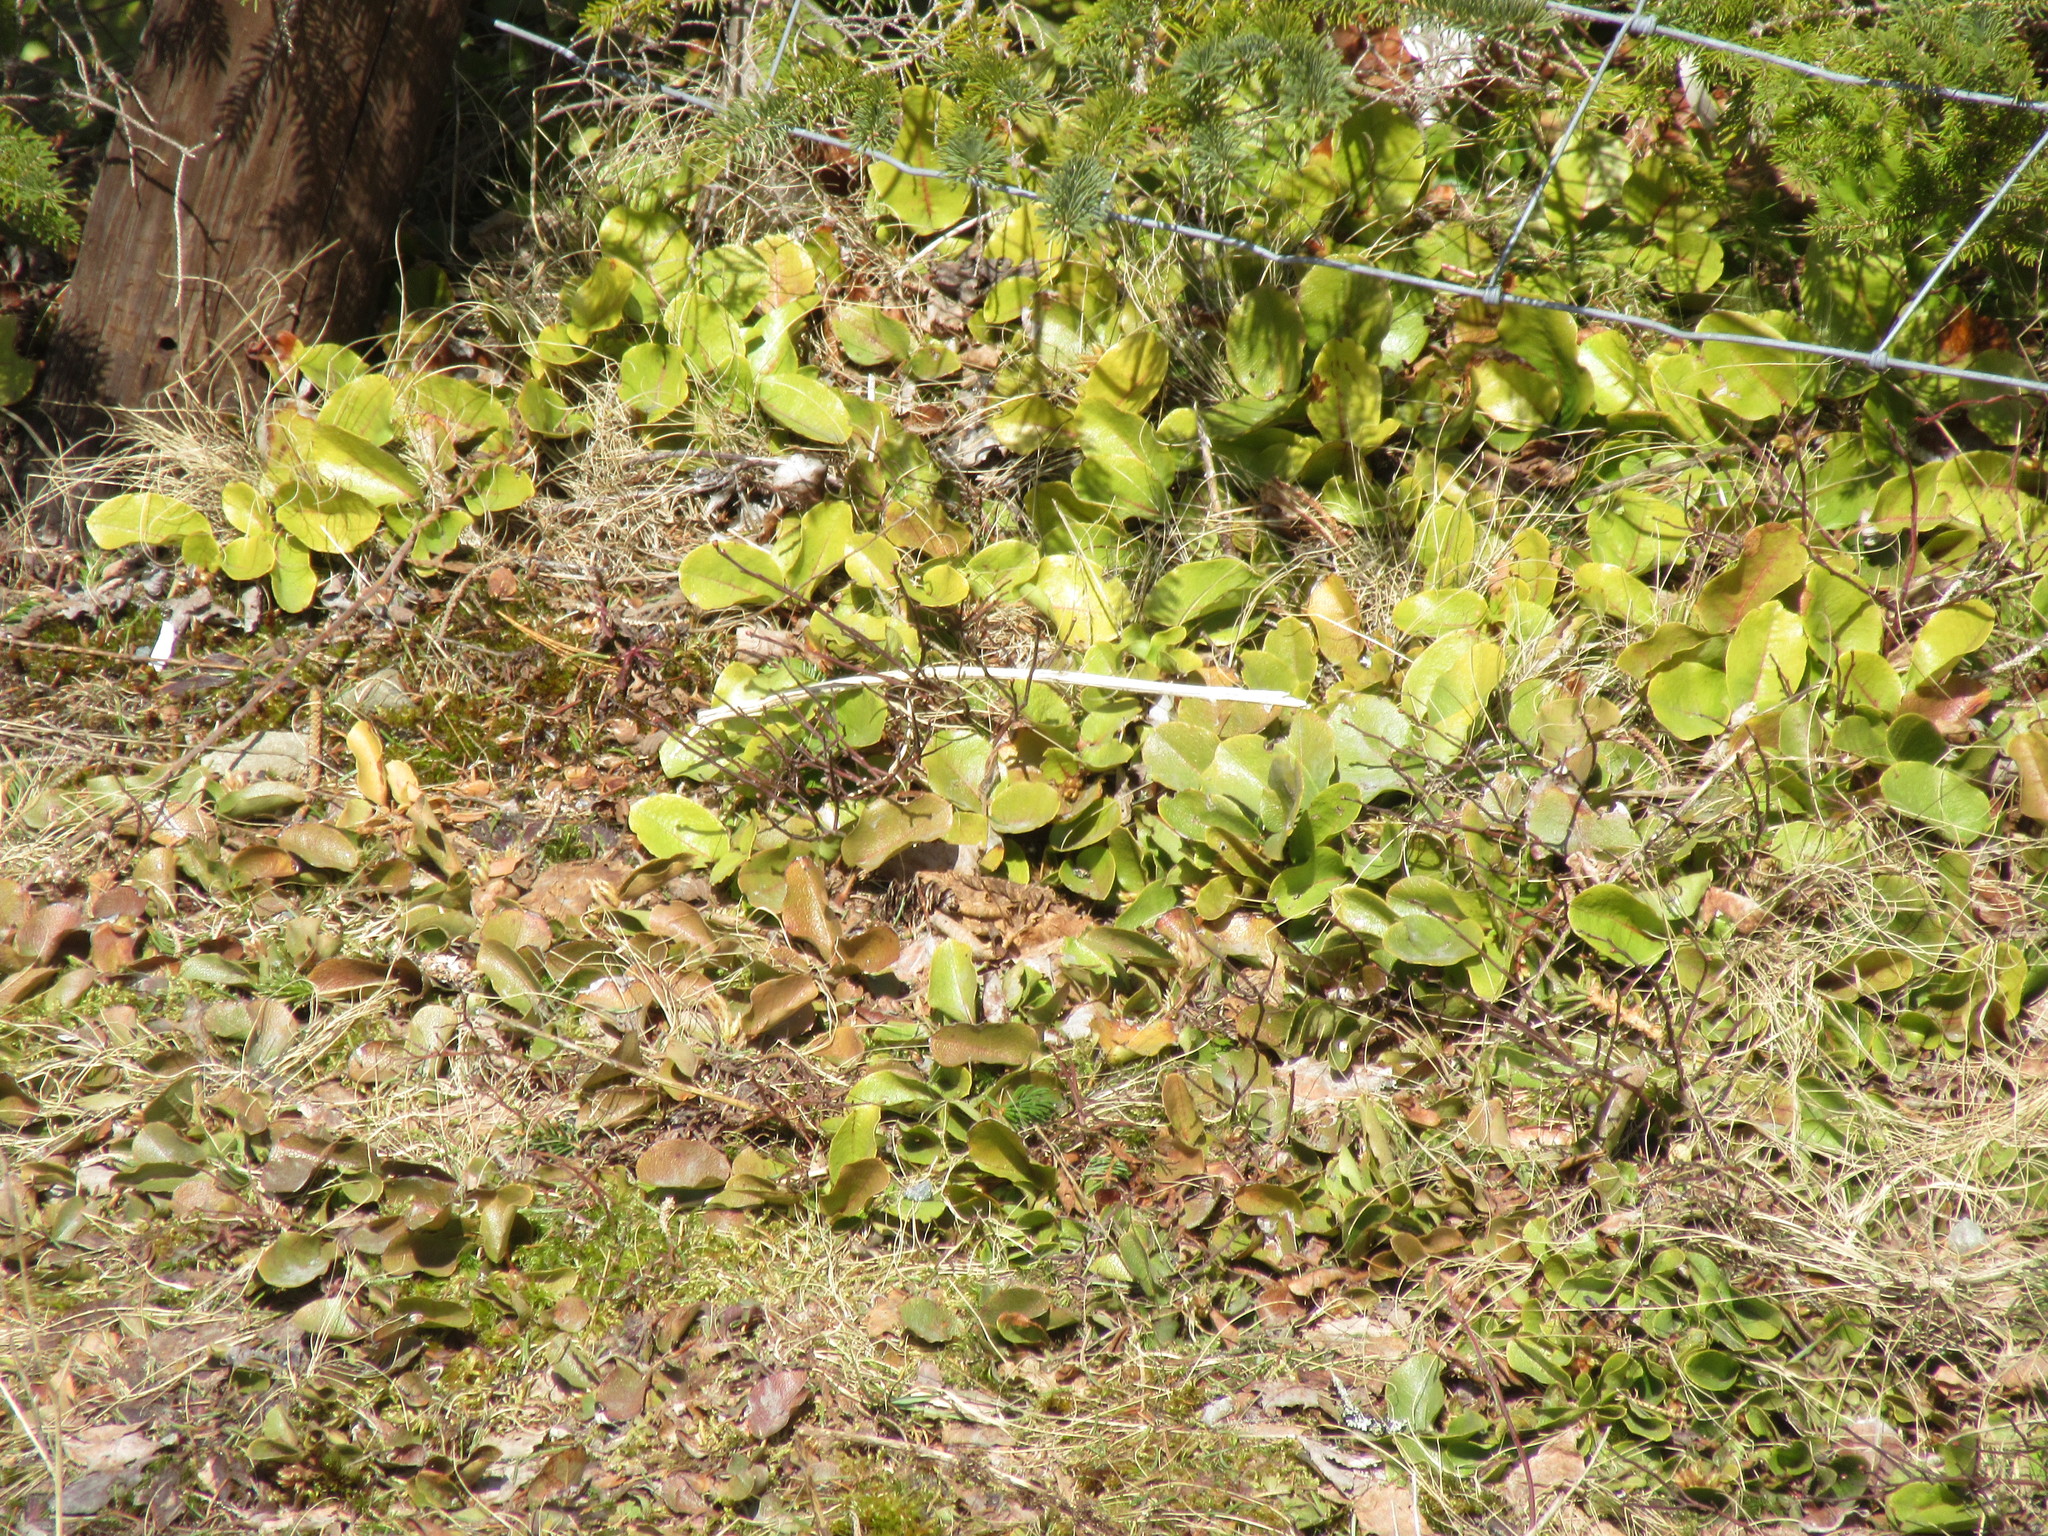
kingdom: Plantae
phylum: Tracheophyta
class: Magnoliopsida
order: Ericales
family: Ericaceae
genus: Epigaea
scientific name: Epigaea repens
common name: Gravelroot
